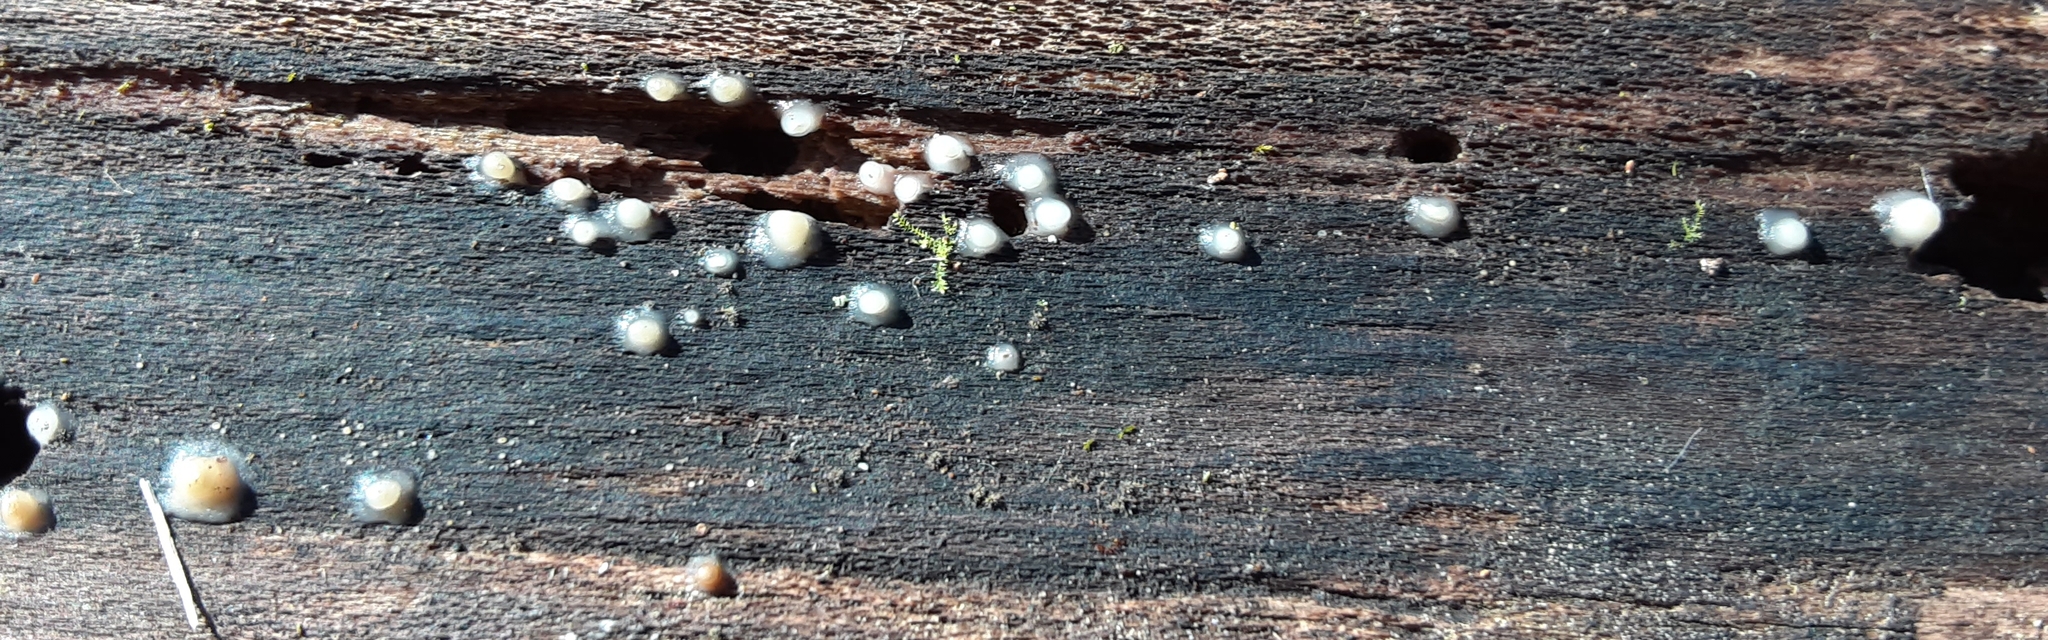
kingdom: Fungi
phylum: Basidiomycota
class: Atractiellomycetes
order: Atractiellales
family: Phleogenaceae
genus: Helicogloea
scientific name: Helicogloea compressa
